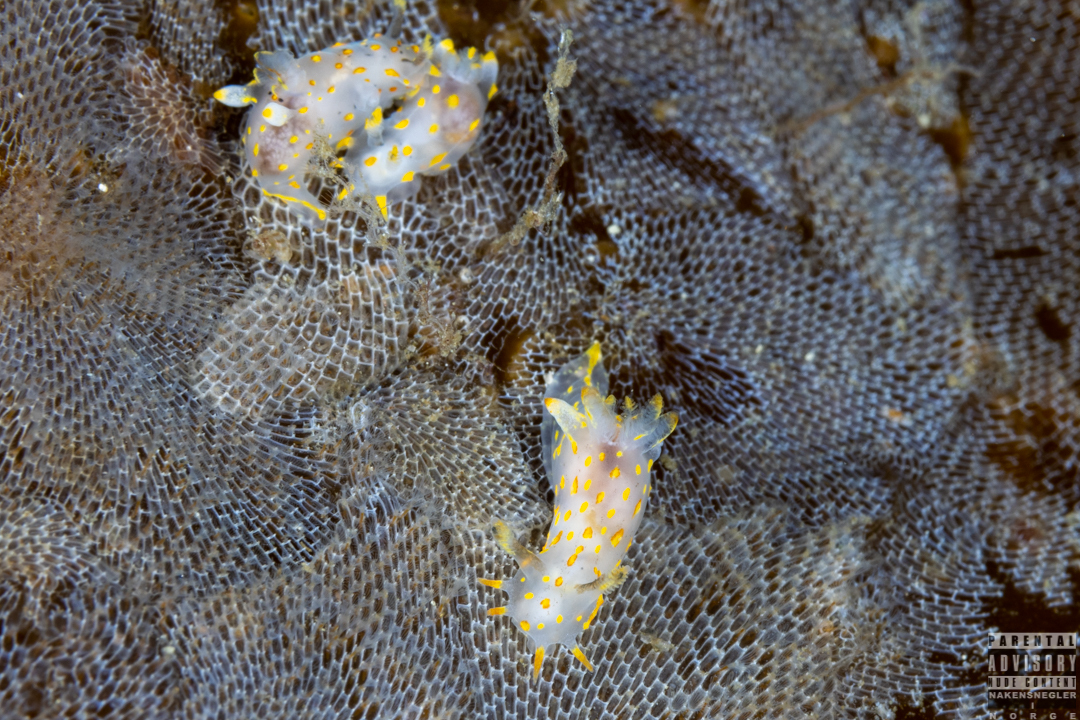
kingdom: Animalia
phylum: Mollusca
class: Gastropoda
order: Nudibranchia
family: Polyceridae
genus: Polycera
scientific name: Polycera quadrilineata
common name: Four-striped polycera
